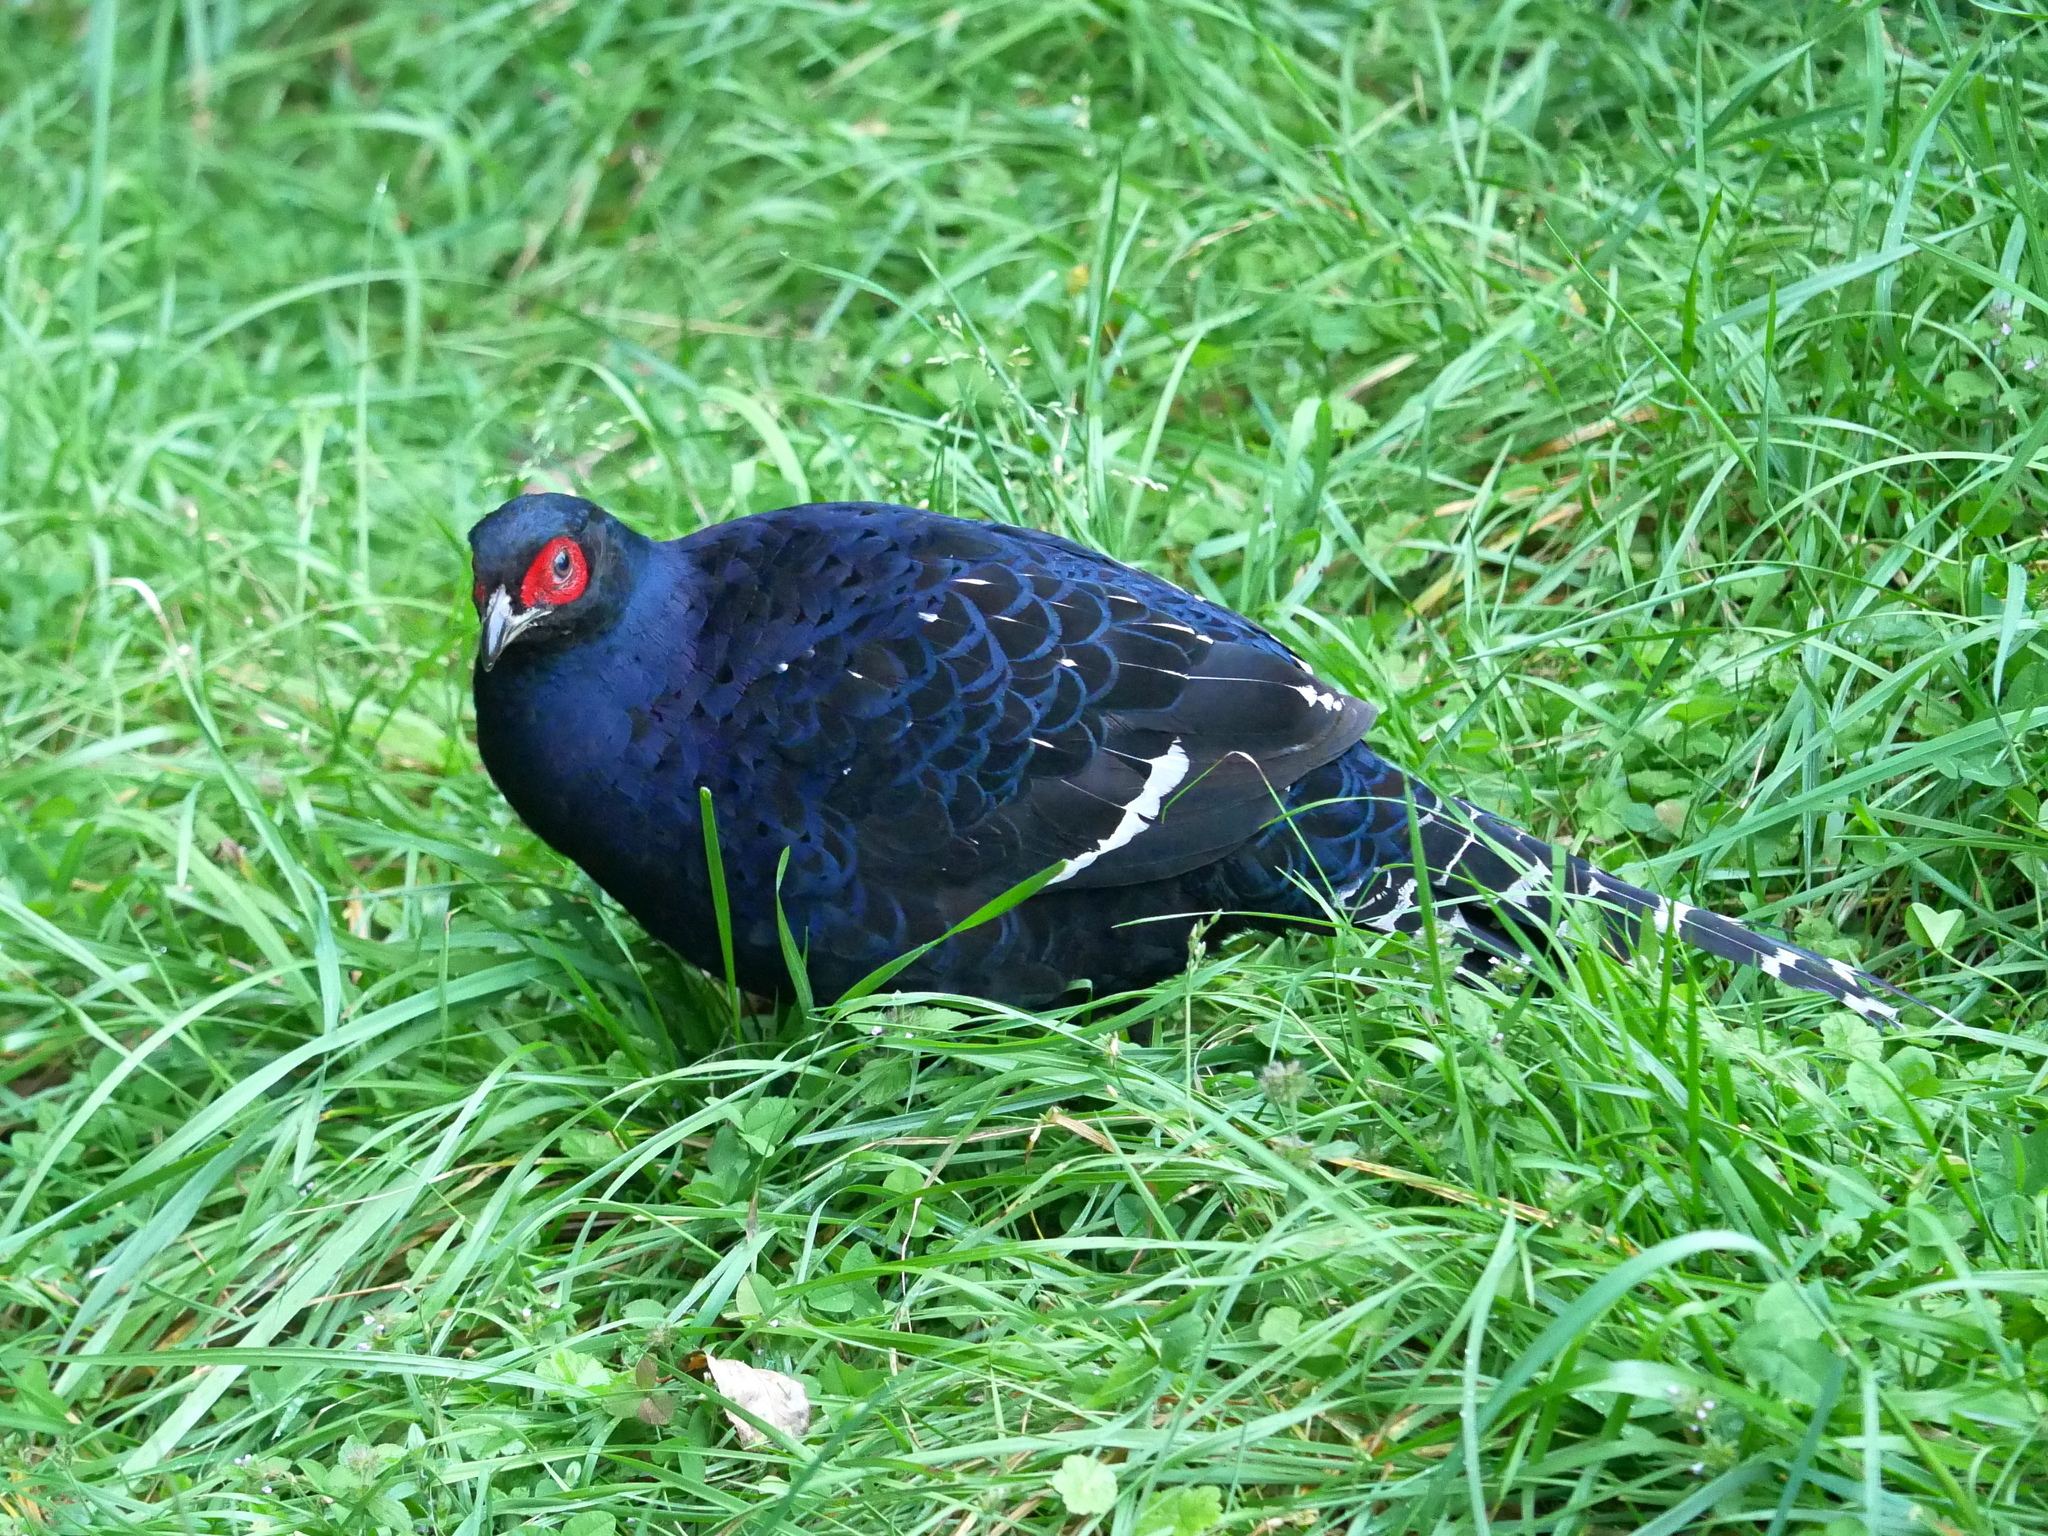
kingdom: Animalia
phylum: Chordata
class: Aves
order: Galliformes
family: Phasianidae
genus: Syrmaticus
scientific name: Syrmaticus mikado
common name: Mikado pheasant
